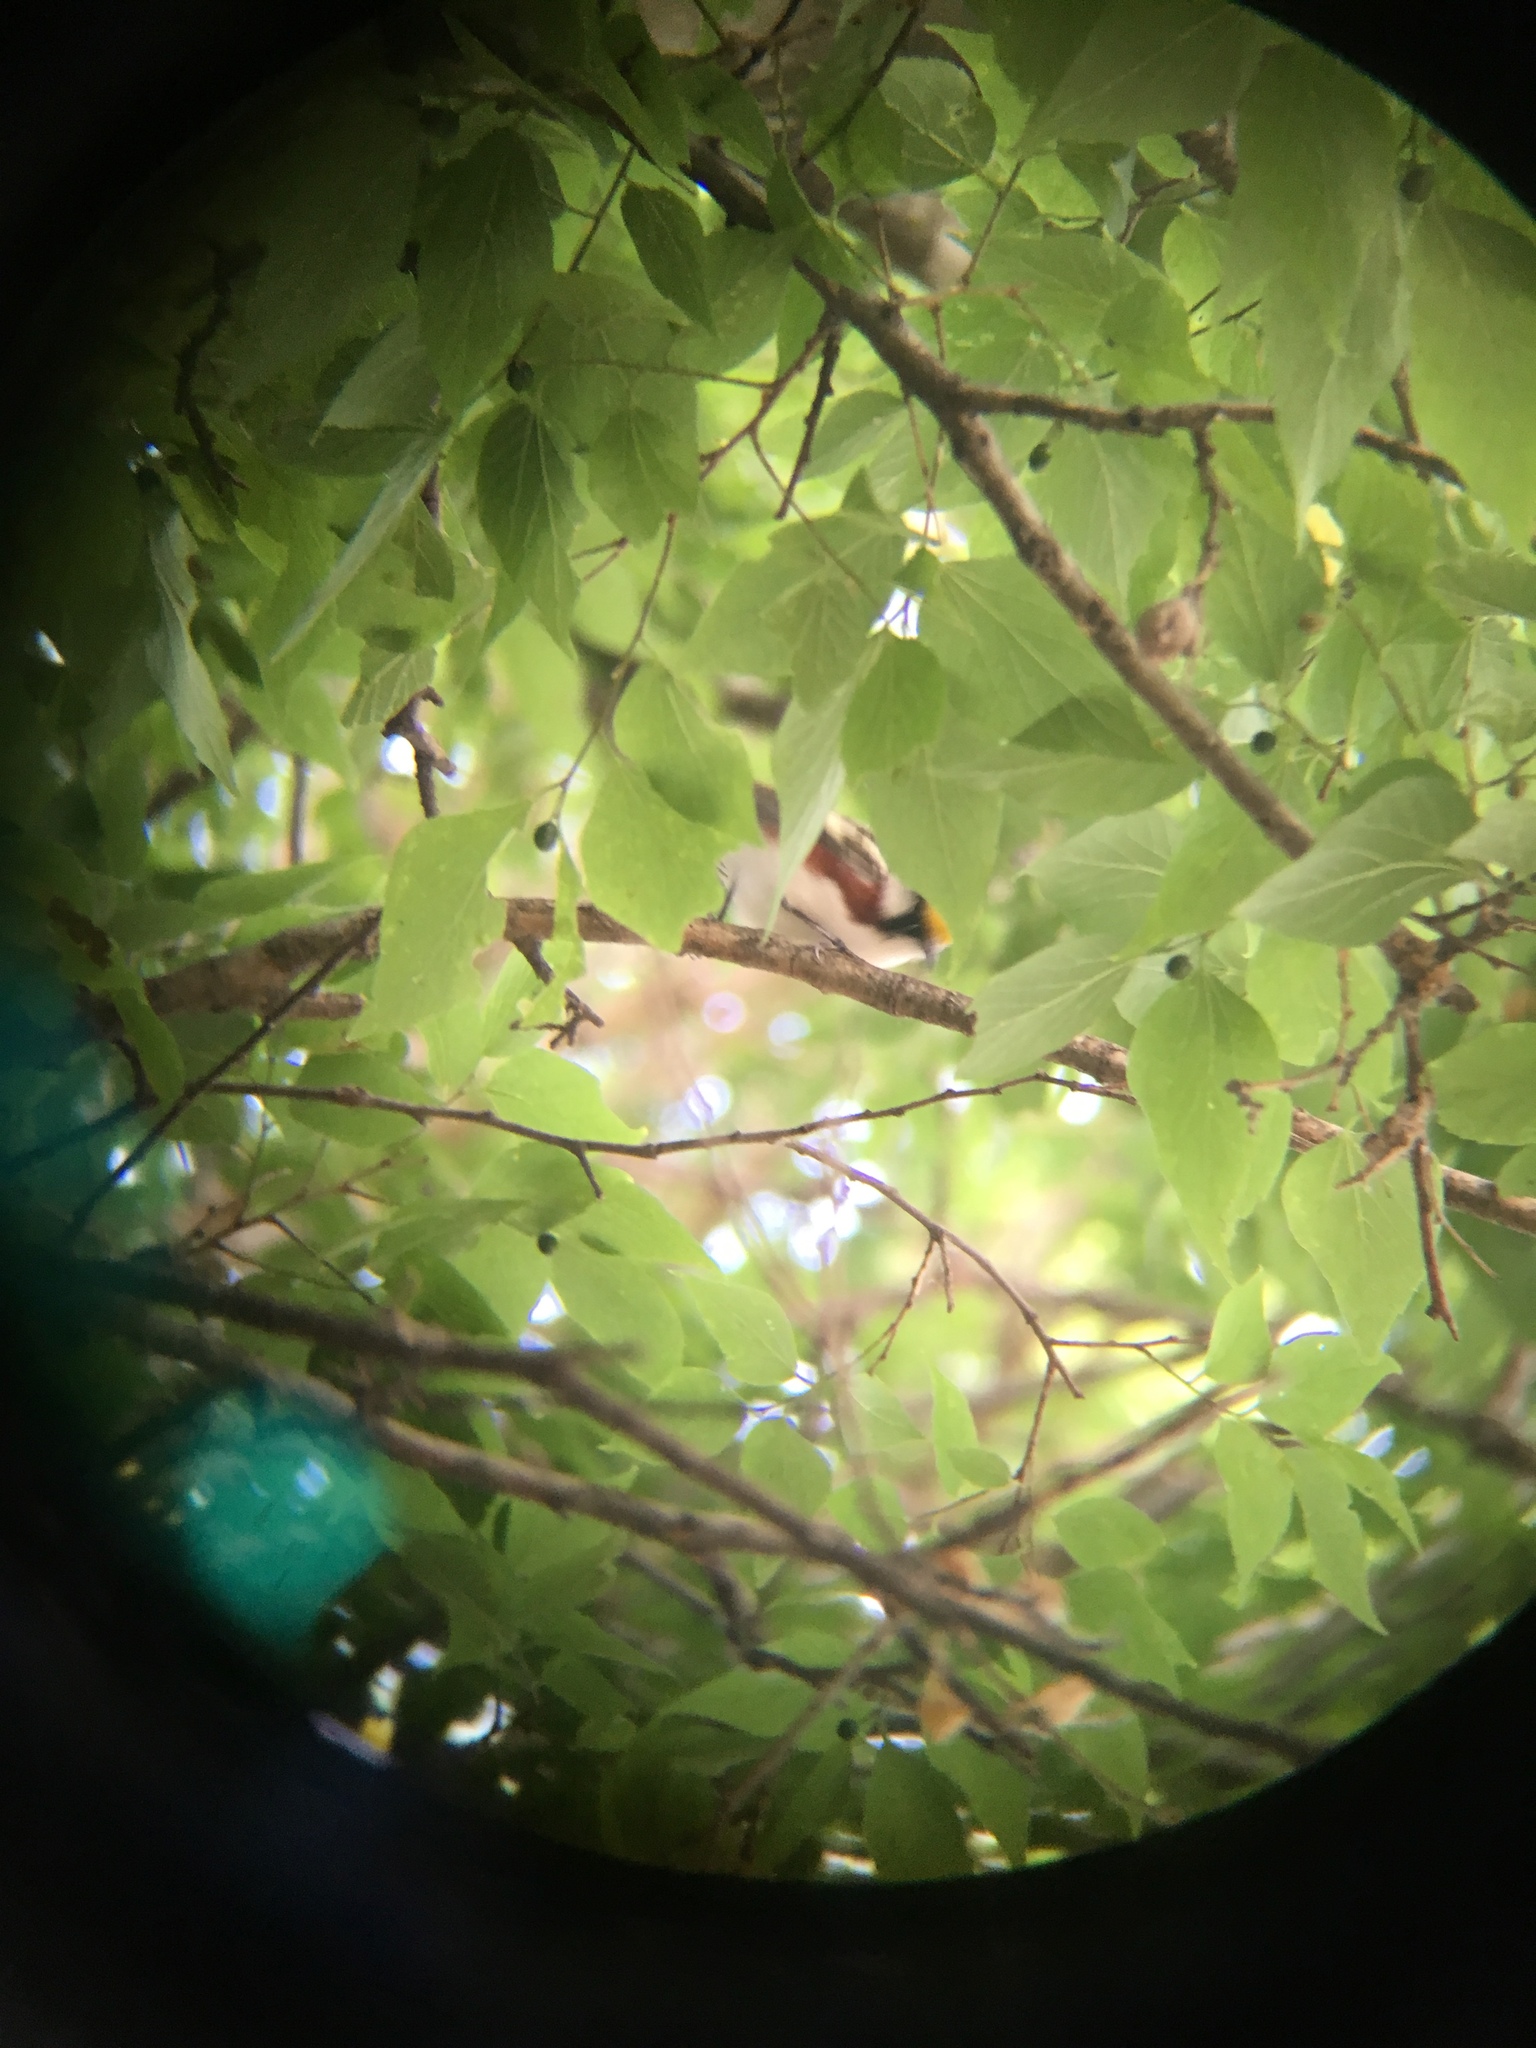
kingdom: Animalia
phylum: Chordata
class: Aves
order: Passeriformes
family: Parulidae
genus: Setophaga
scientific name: Setophaga pensylvanica
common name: Chestnut-sided warbler
